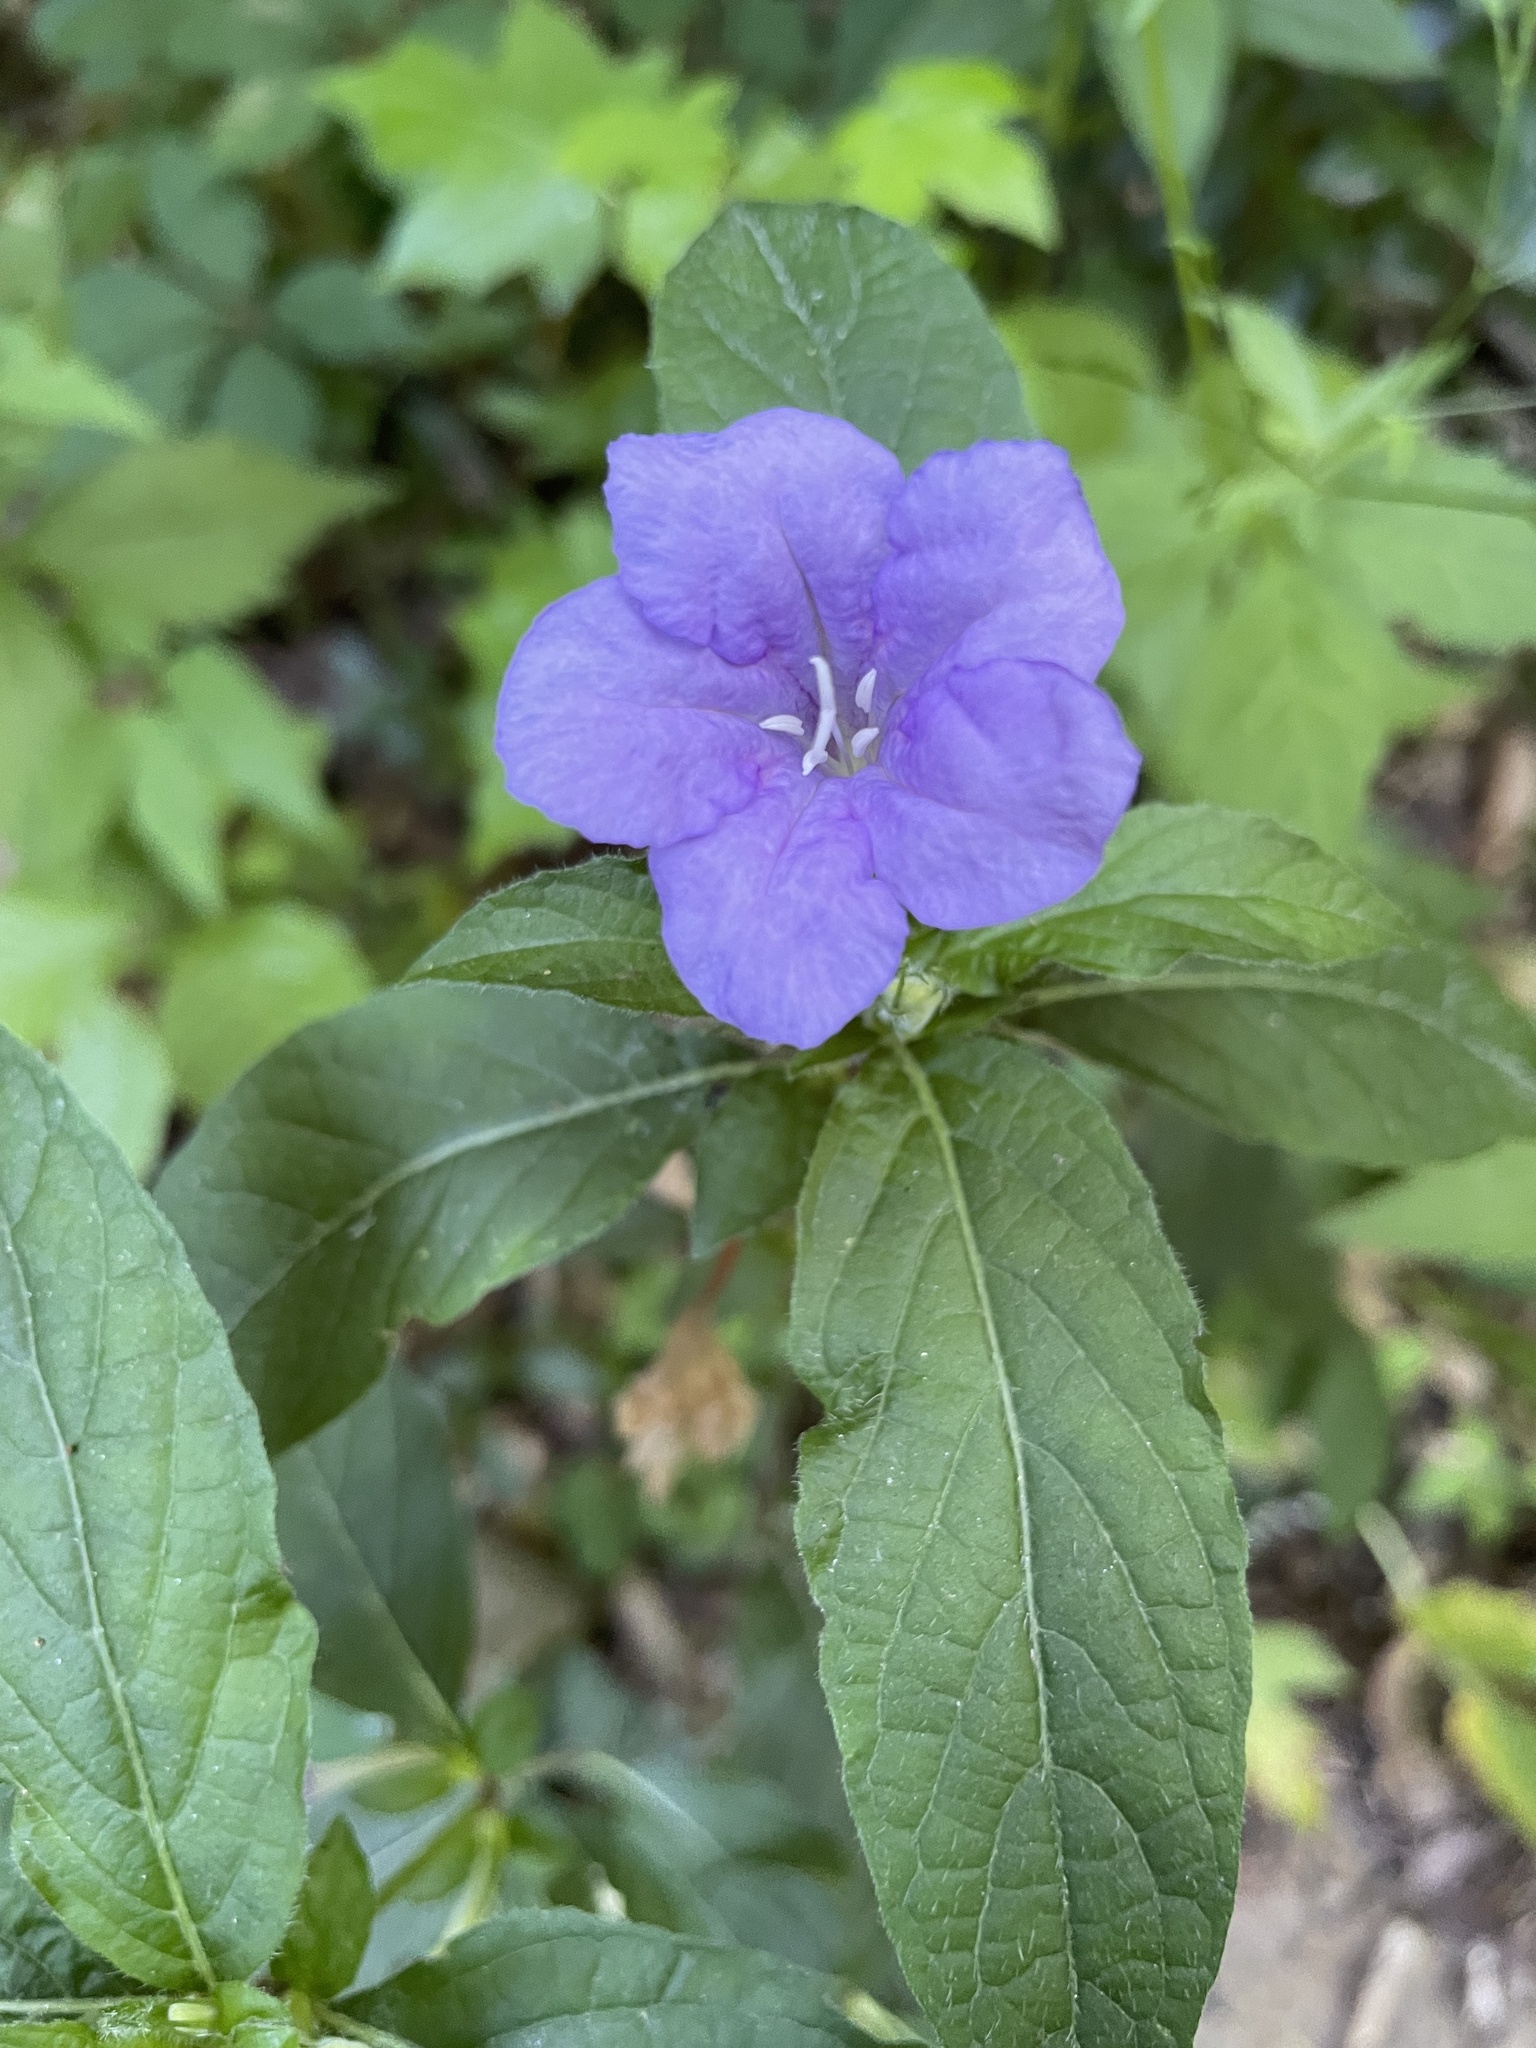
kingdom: Plantae
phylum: Tracheophyta
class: Magnoliopsida
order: Lamiales
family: Acanthaceae
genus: Ruellia
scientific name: Ruellia caroliniensis
